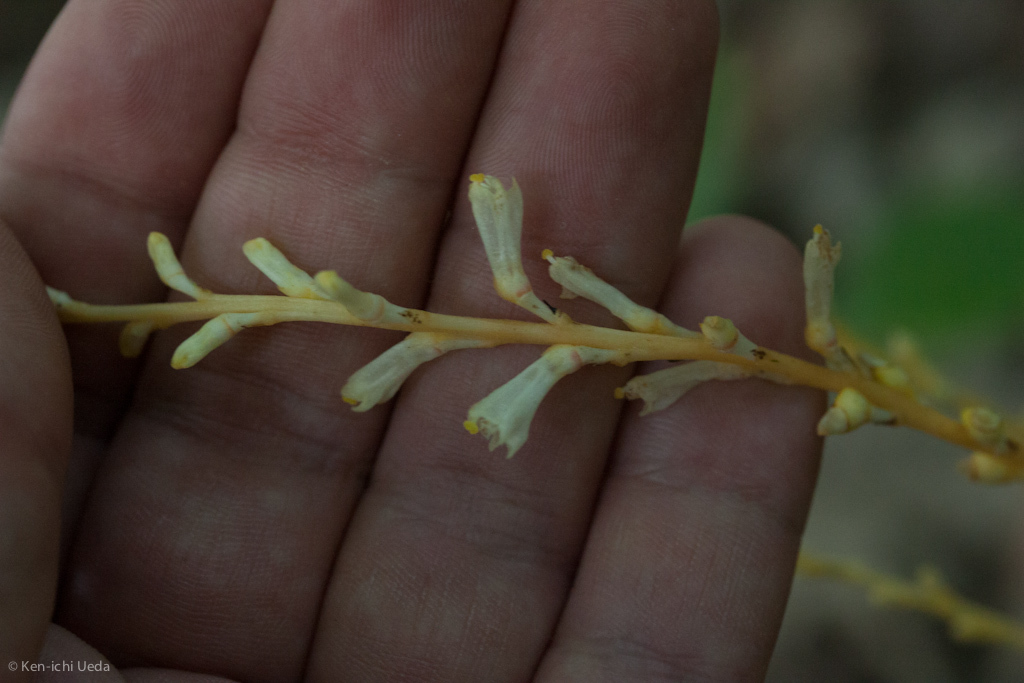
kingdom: Plantae
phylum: Tracheophyta
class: Magnoliopsida
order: Lamiales
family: Orobanchaceae
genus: Epifagus
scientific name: Epifagus virginiana
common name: Beechdrops
